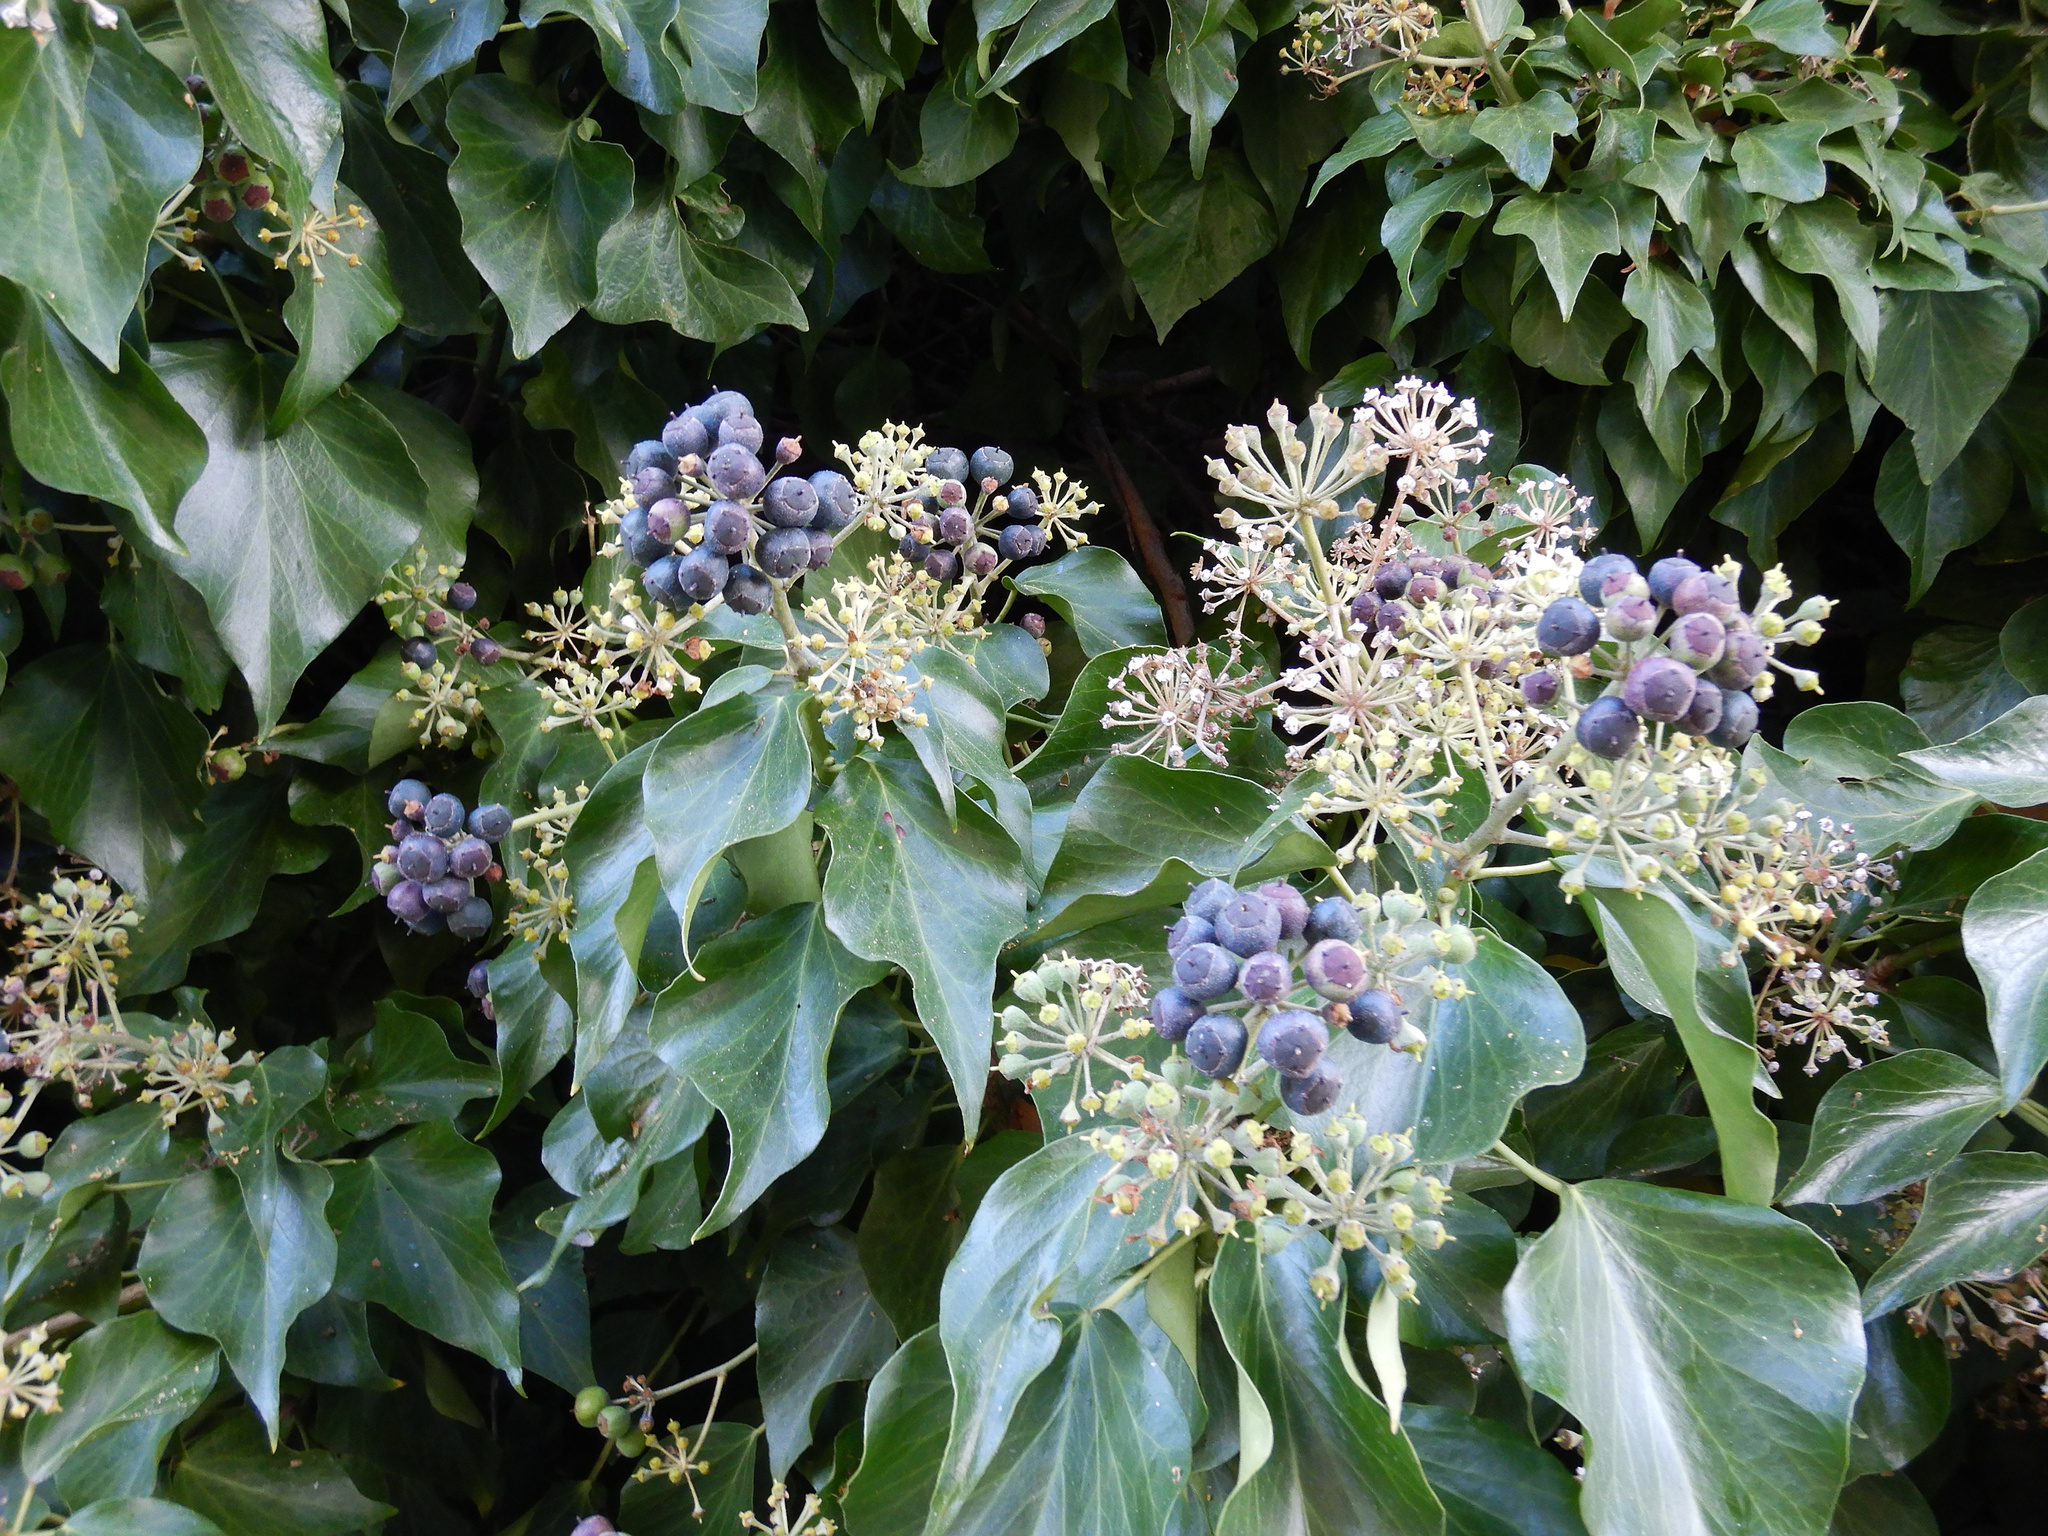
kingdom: Plantae
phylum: Tracheophyta
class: Magnoliopsida
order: Apiales
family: Araliaceae
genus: Hedera
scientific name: Hedera helix
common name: Ivy
